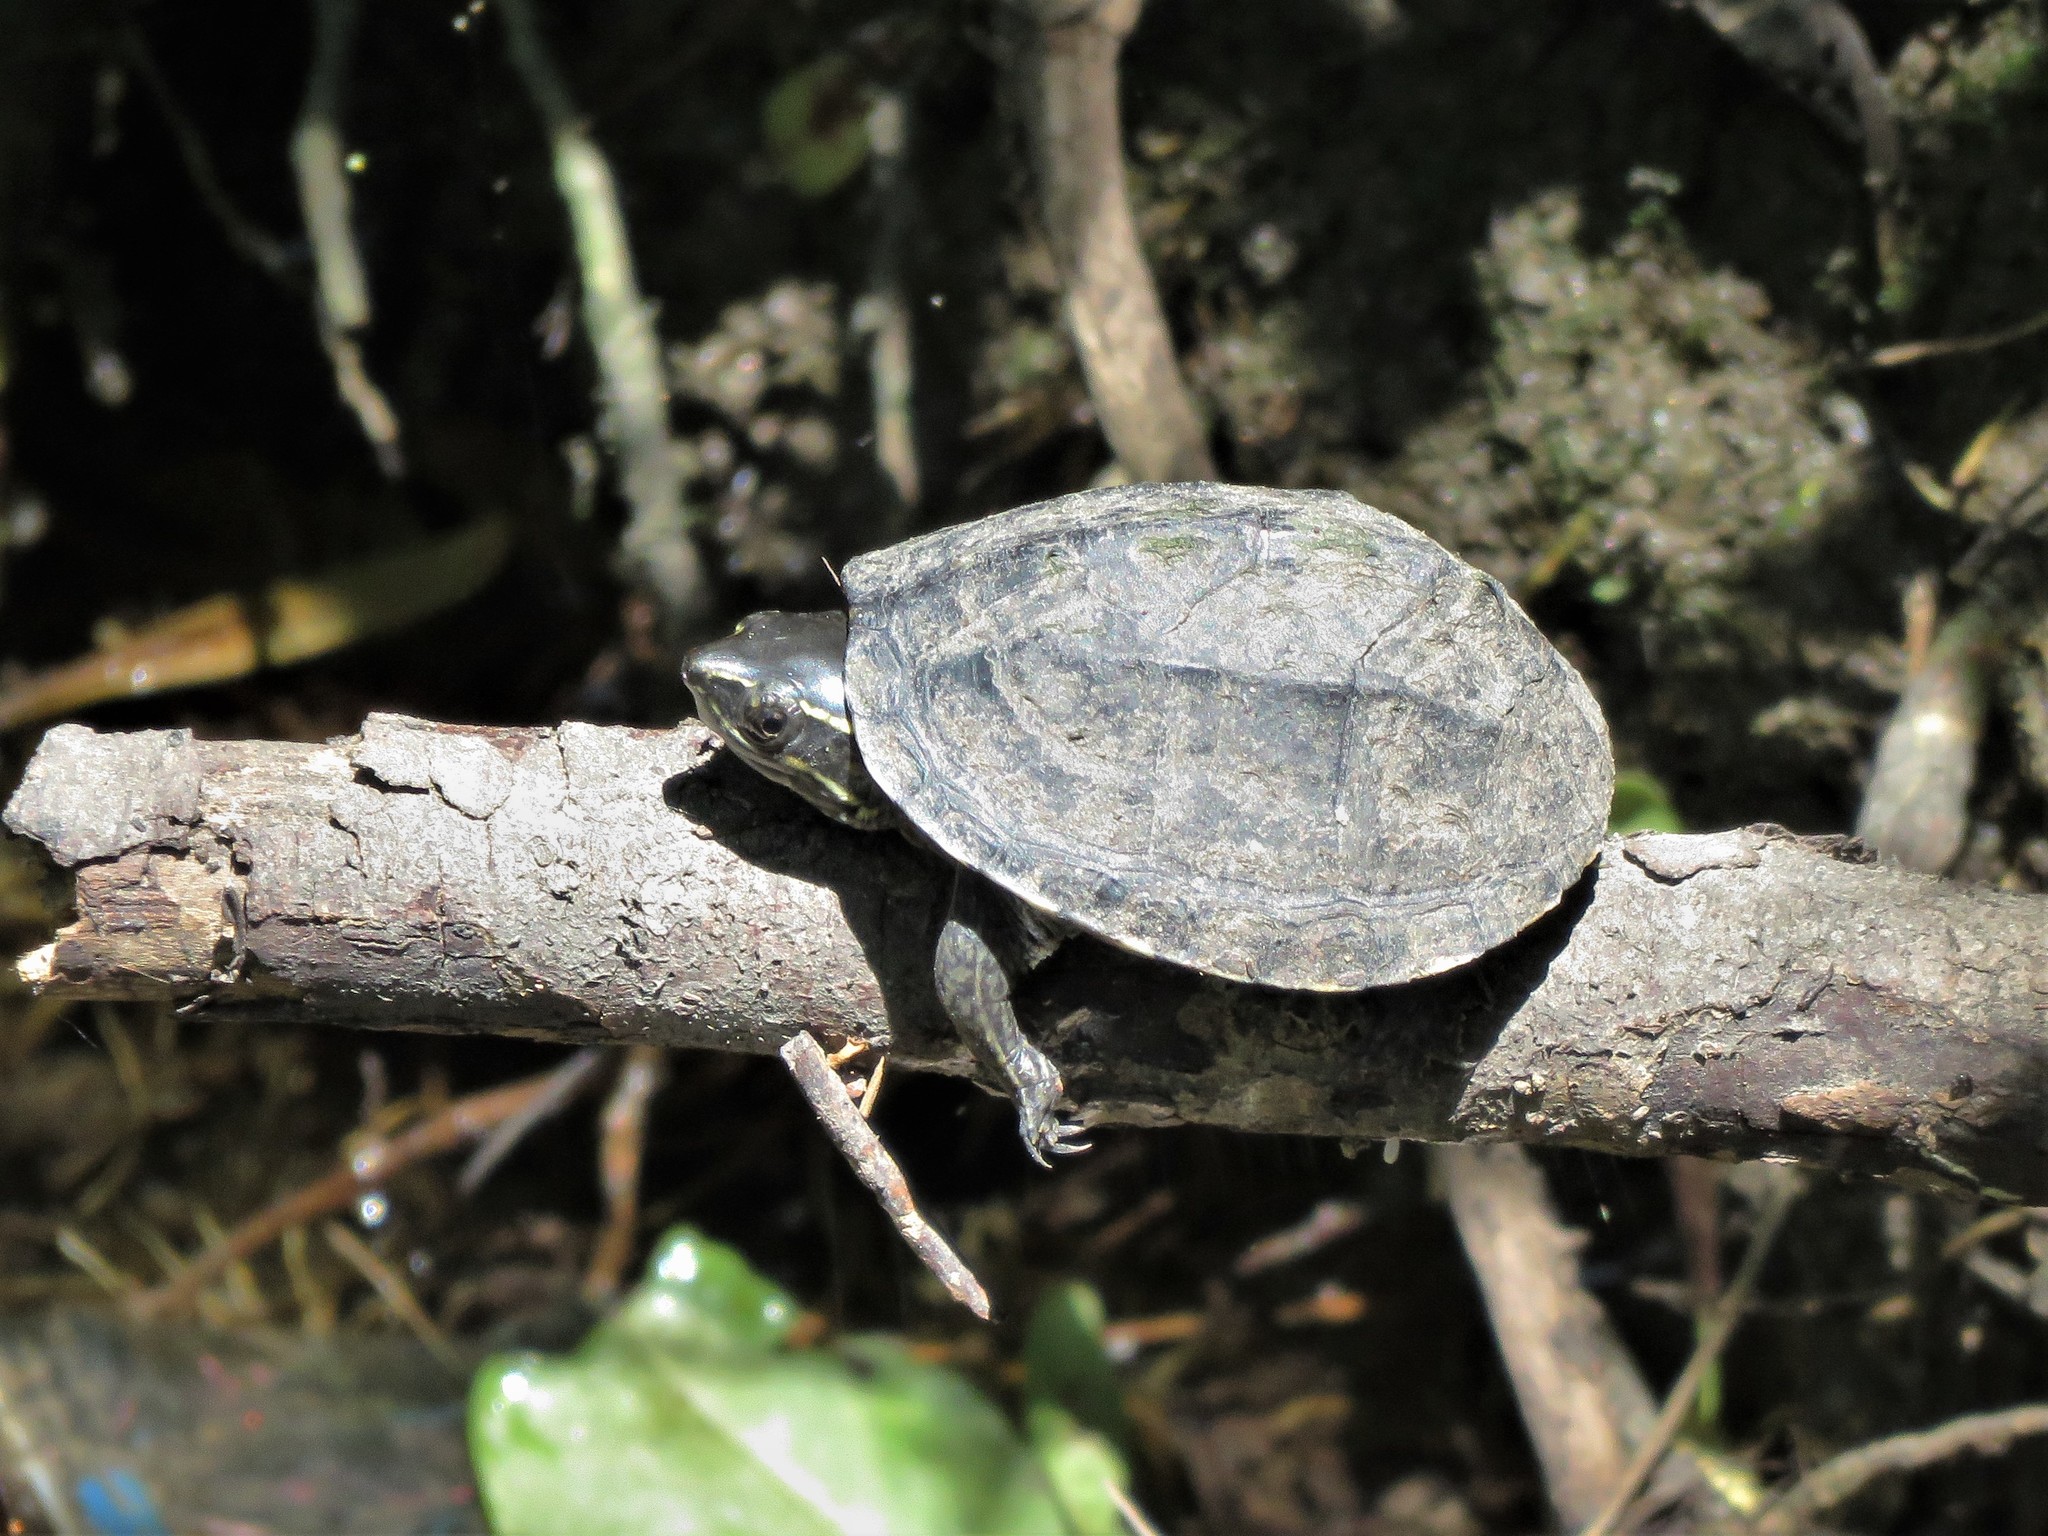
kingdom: Animalia
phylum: Chordata
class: Testudines
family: Kinosternidae
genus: Sternotherus
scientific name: Sternotherus odoratus
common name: Common musk turtle
